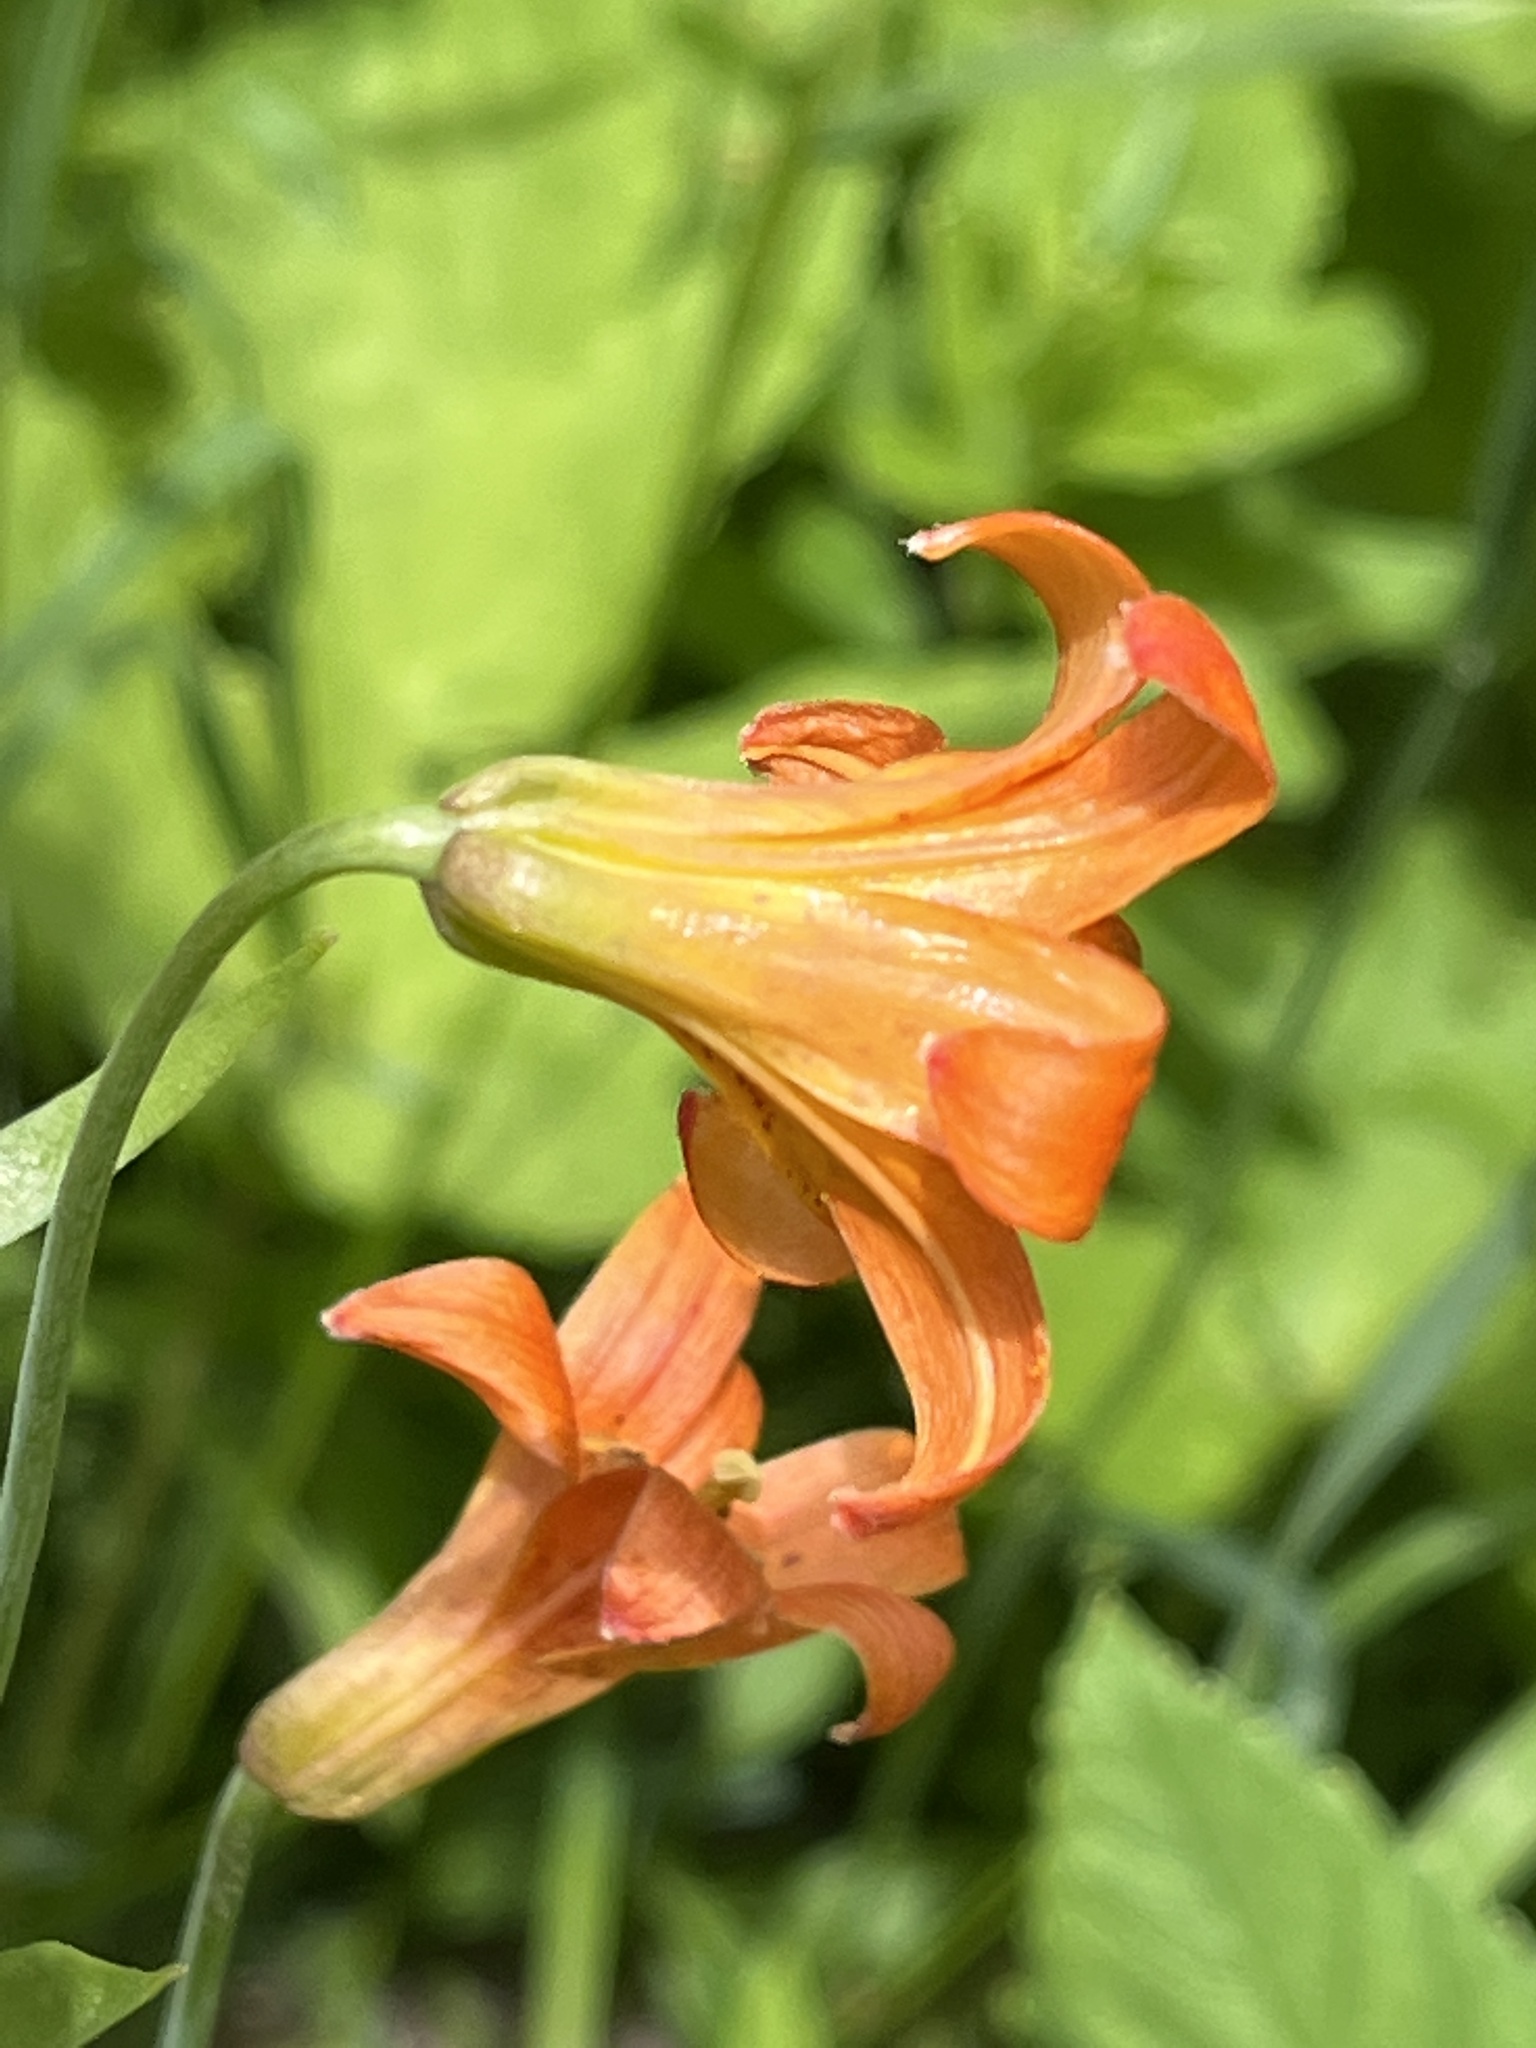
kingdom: Plantae
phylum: Tracheophyta
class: Liliopsida
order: Liliales
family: Liliaceae
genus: Lilium
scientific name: Lilium parvum
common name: Alpine lily
